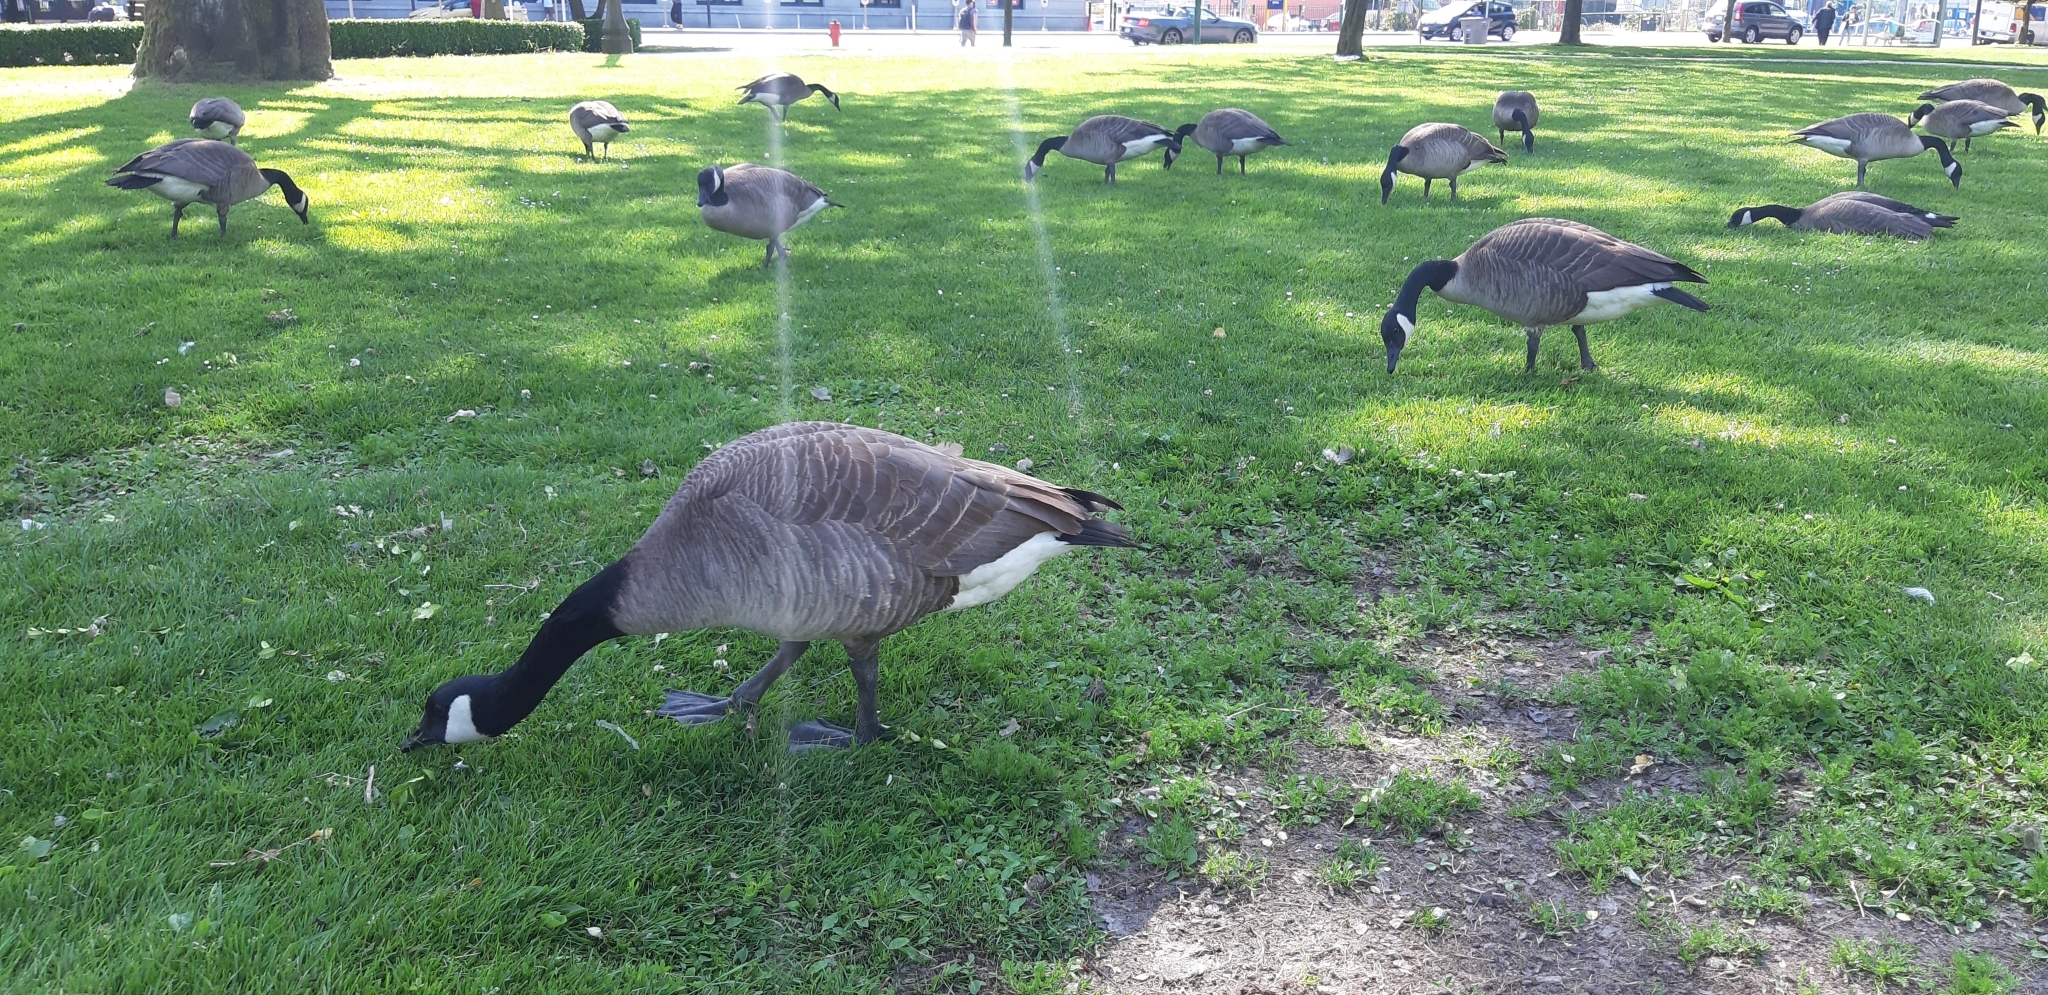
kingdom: Animalia
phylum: Chordata
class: Aves
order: Anseriformes
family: Anatidae
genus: Branta
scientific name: Branta canadensis
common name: Canada goose
